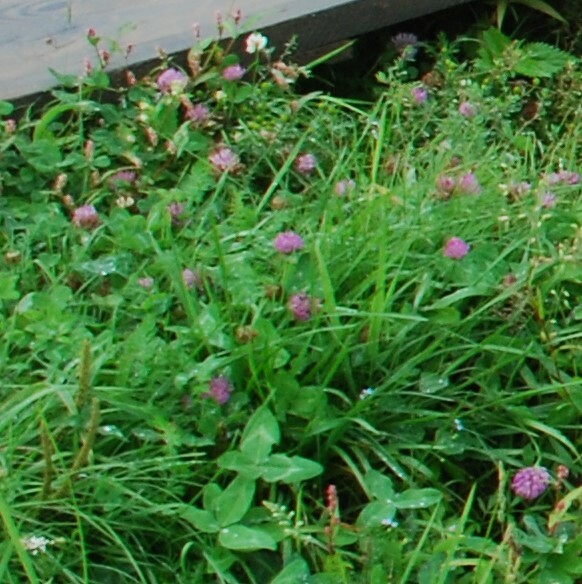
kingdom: Plantae
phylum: Tracheophyta
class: Magnoliopsida
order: Fabales
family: Fabaceae
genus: Trifolium
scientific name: Trifolium pratense
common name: Red clover
